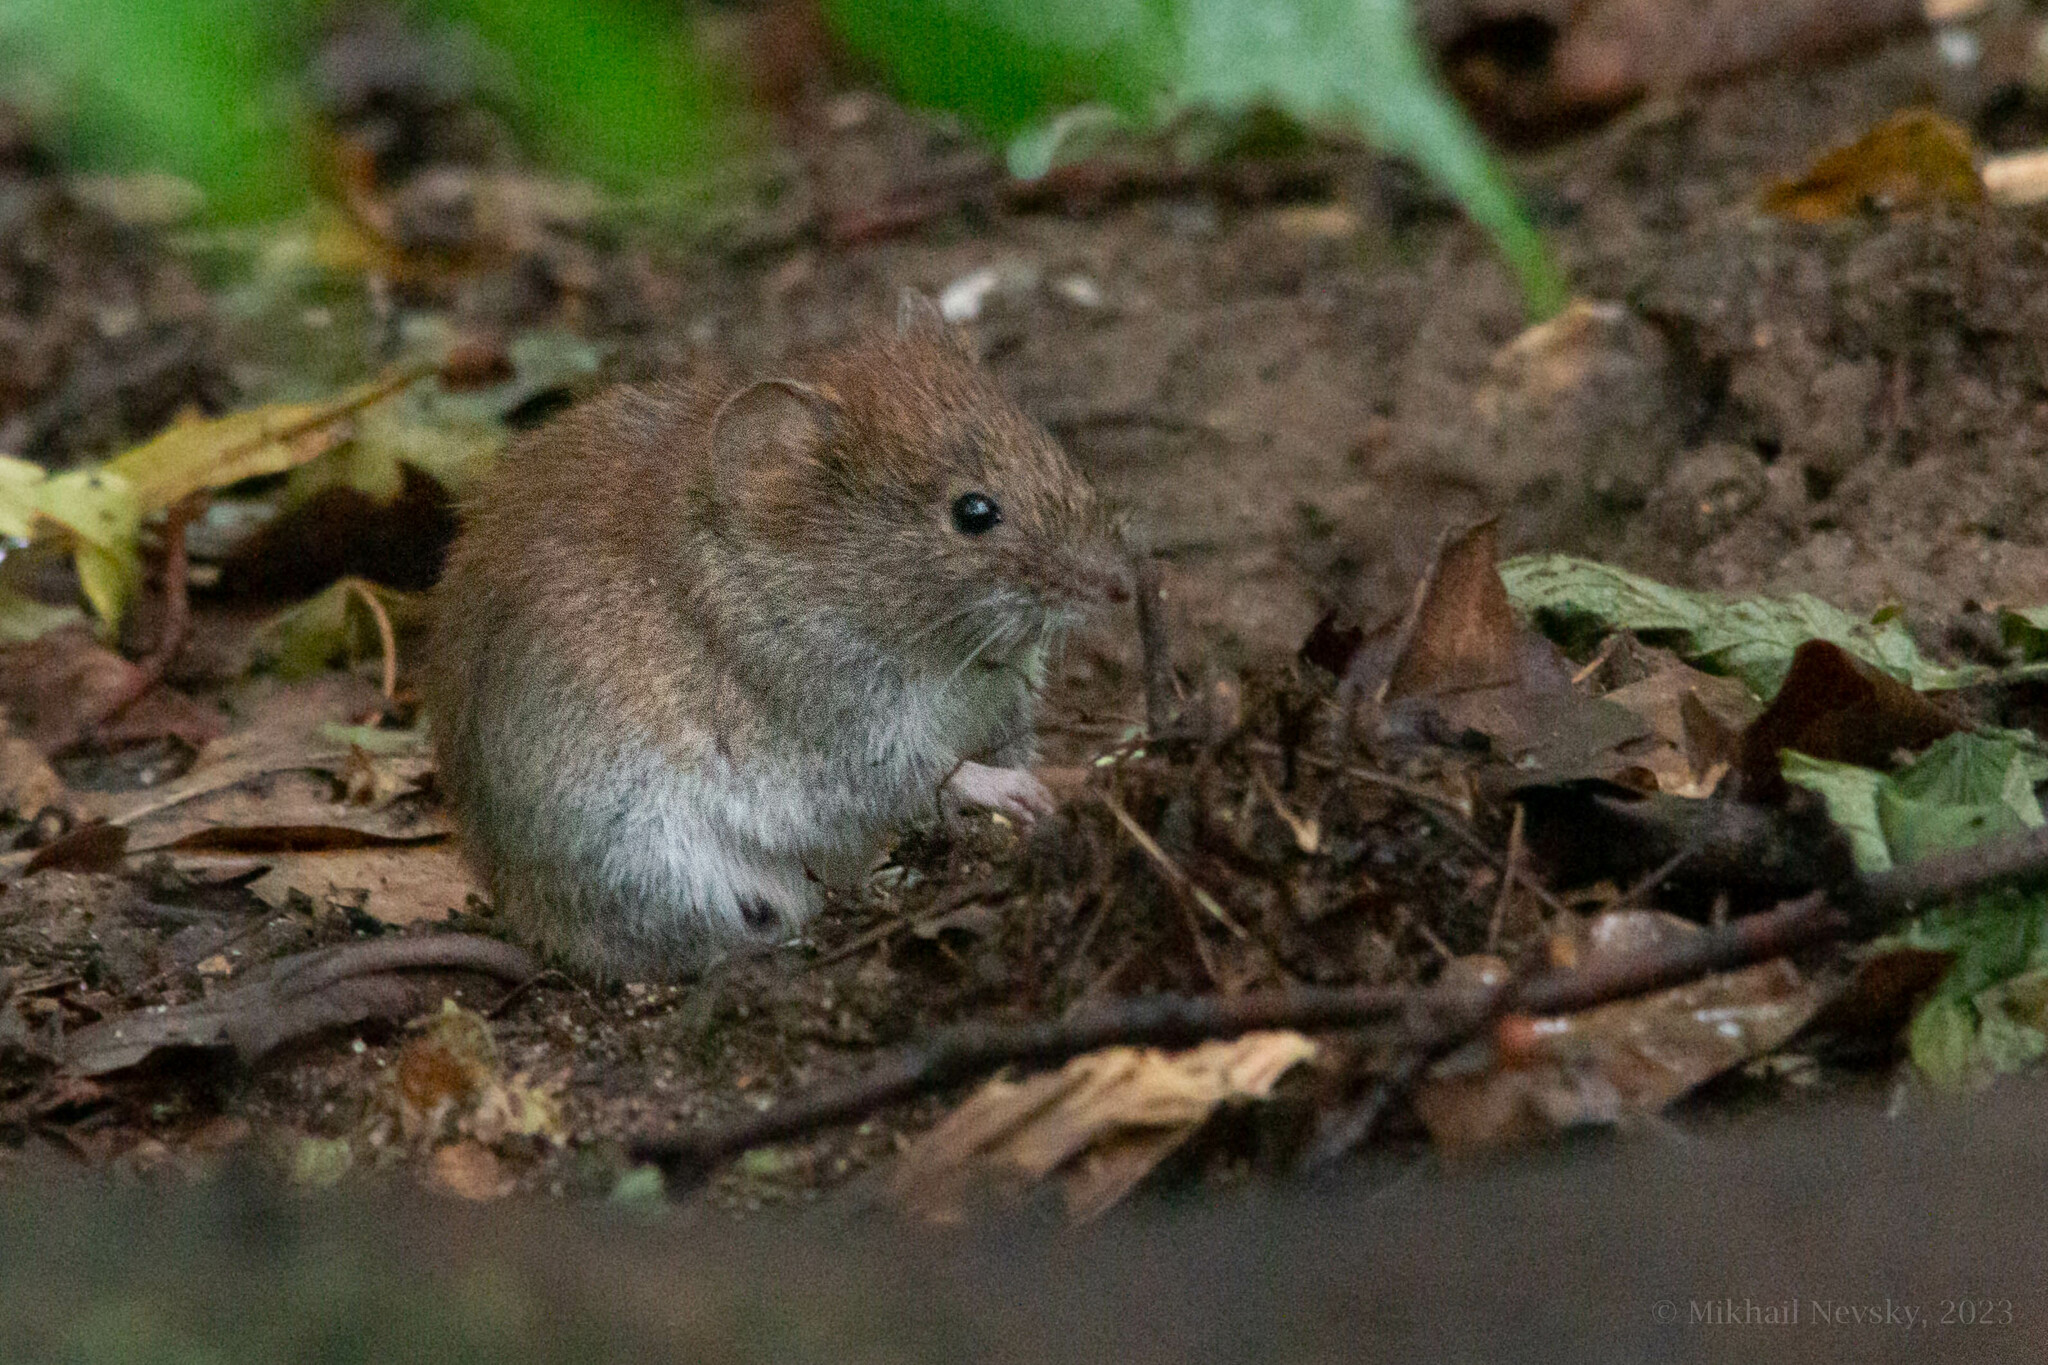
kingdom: Animalia
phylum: Chordata
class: Mammalia
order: Rodentia
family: Cricetidae
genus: Myodes
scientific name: Myodes glareolus
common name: Bank vole
